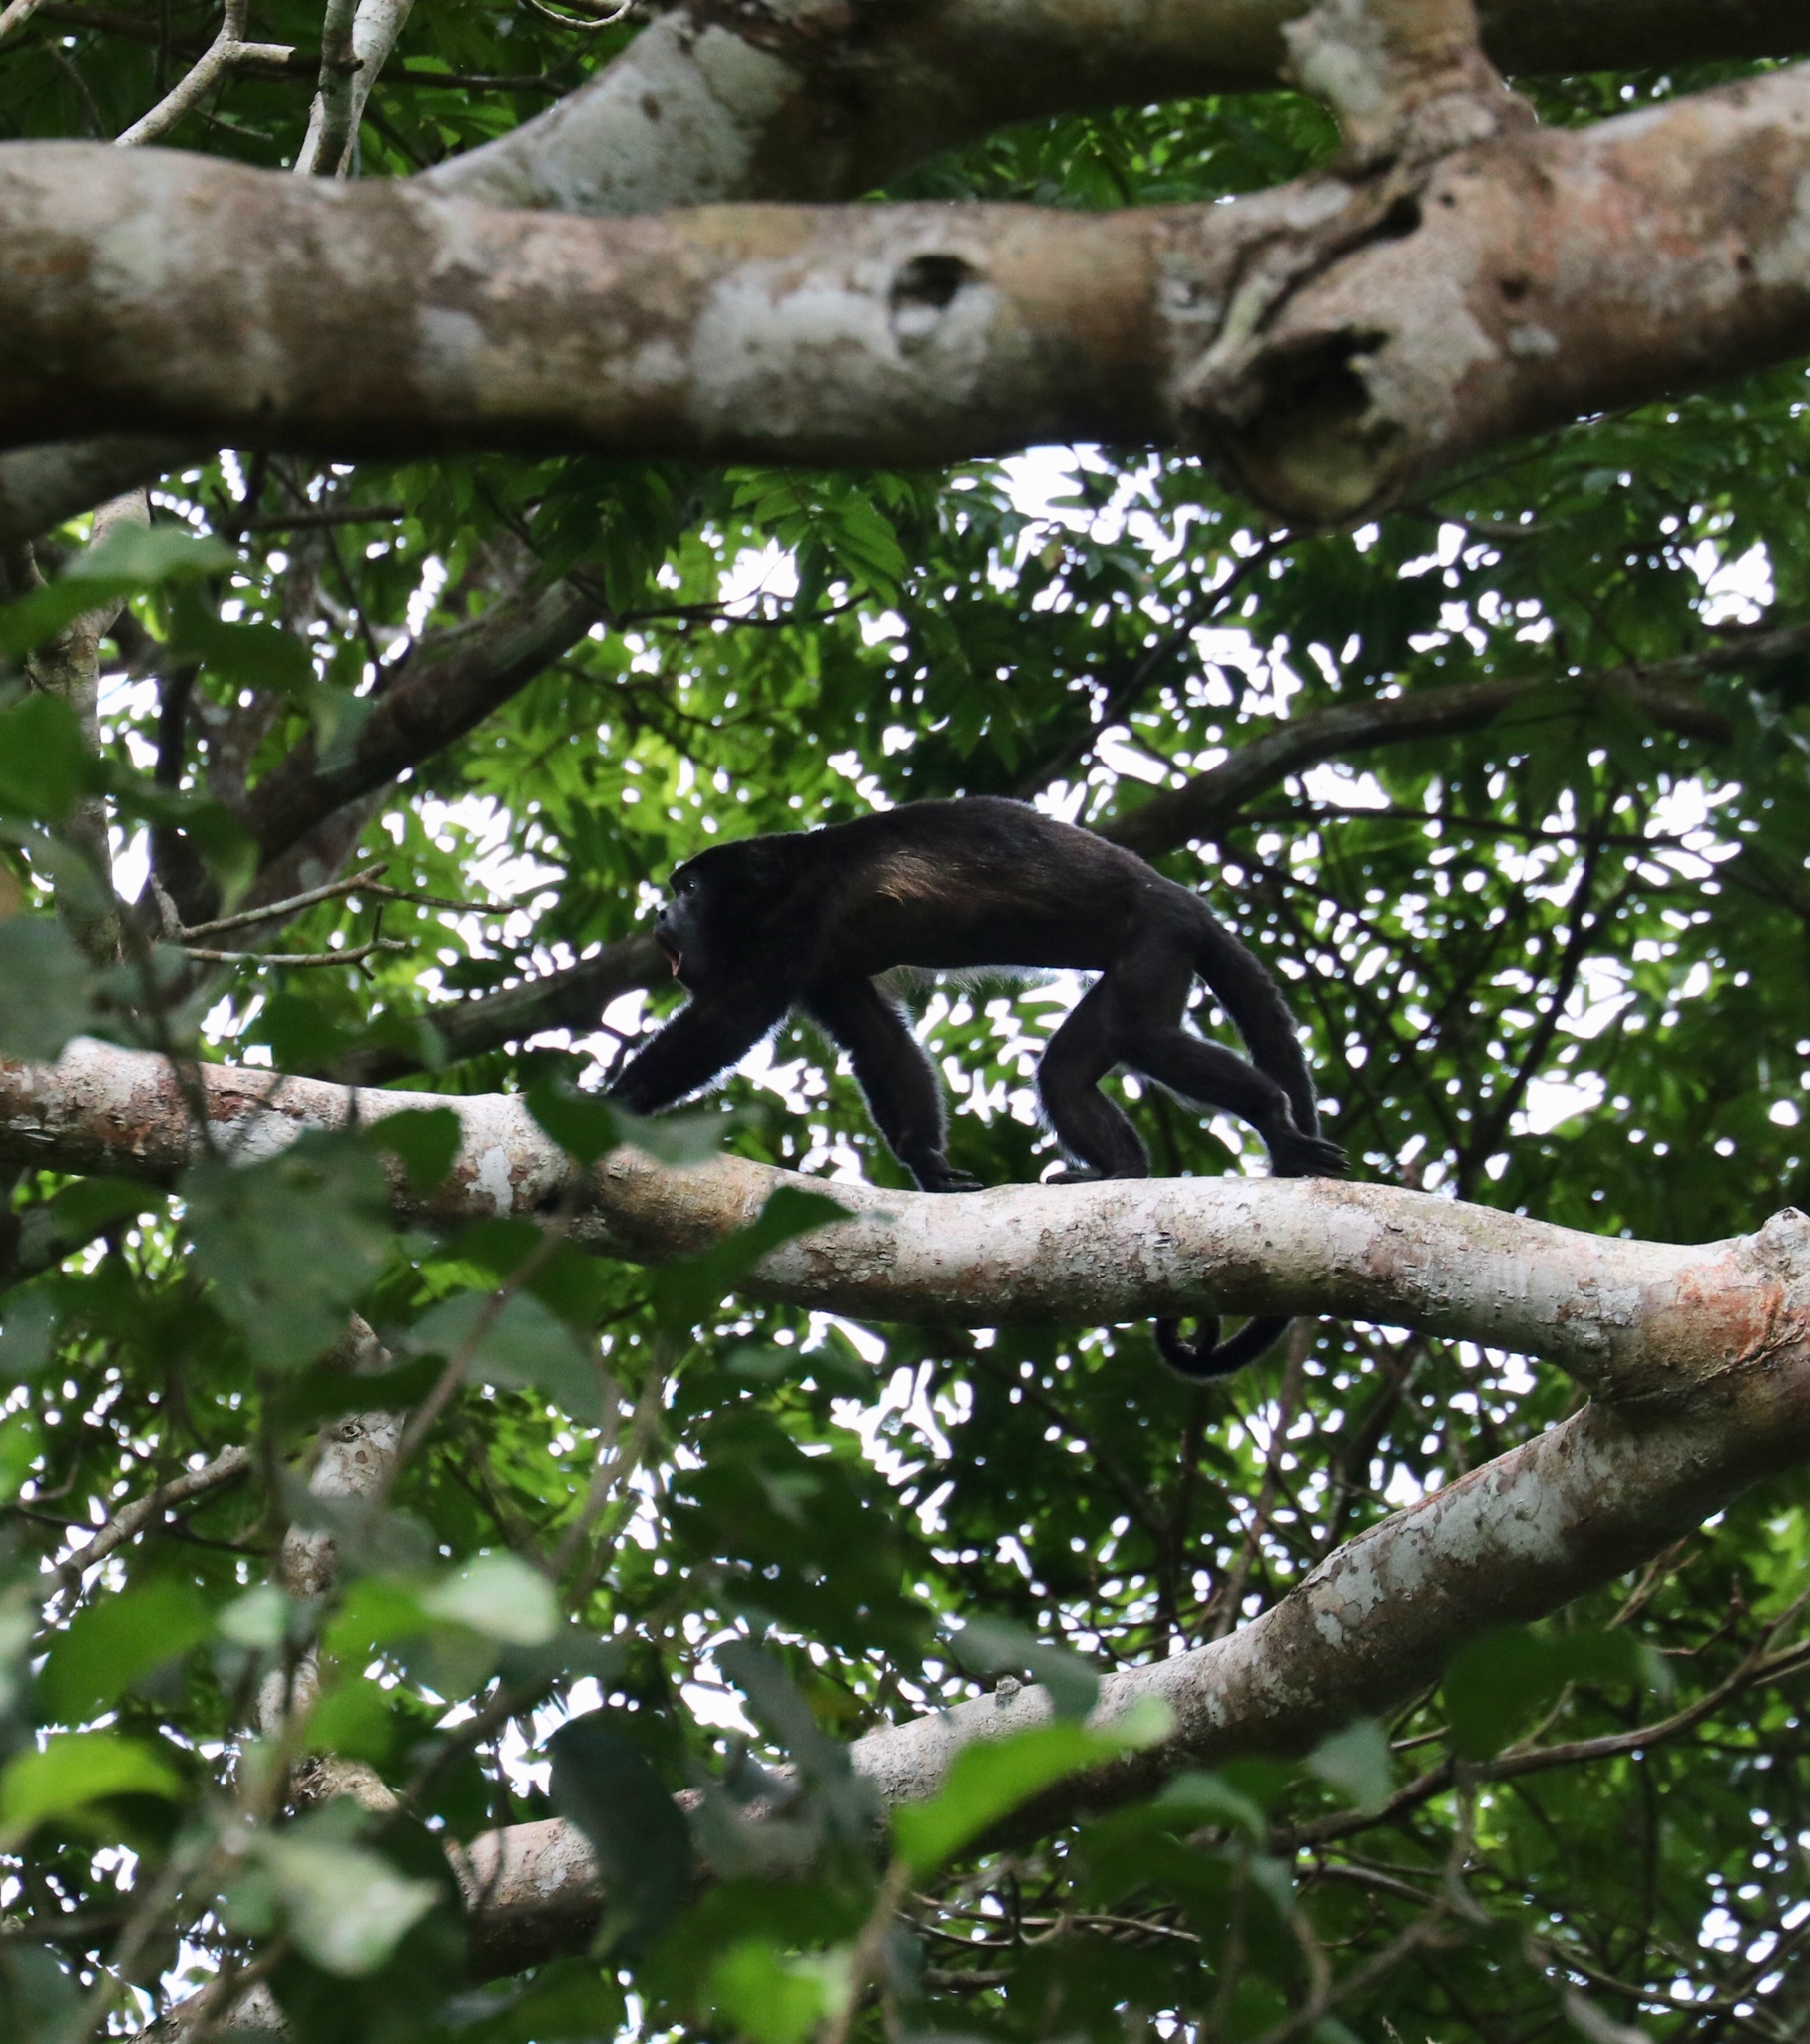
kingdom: Animalia
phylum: Chordata
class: Mammalia
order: Primates
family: Atelidae
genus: Alouatta
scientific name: Alouatta palliata
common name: Mantled howler
